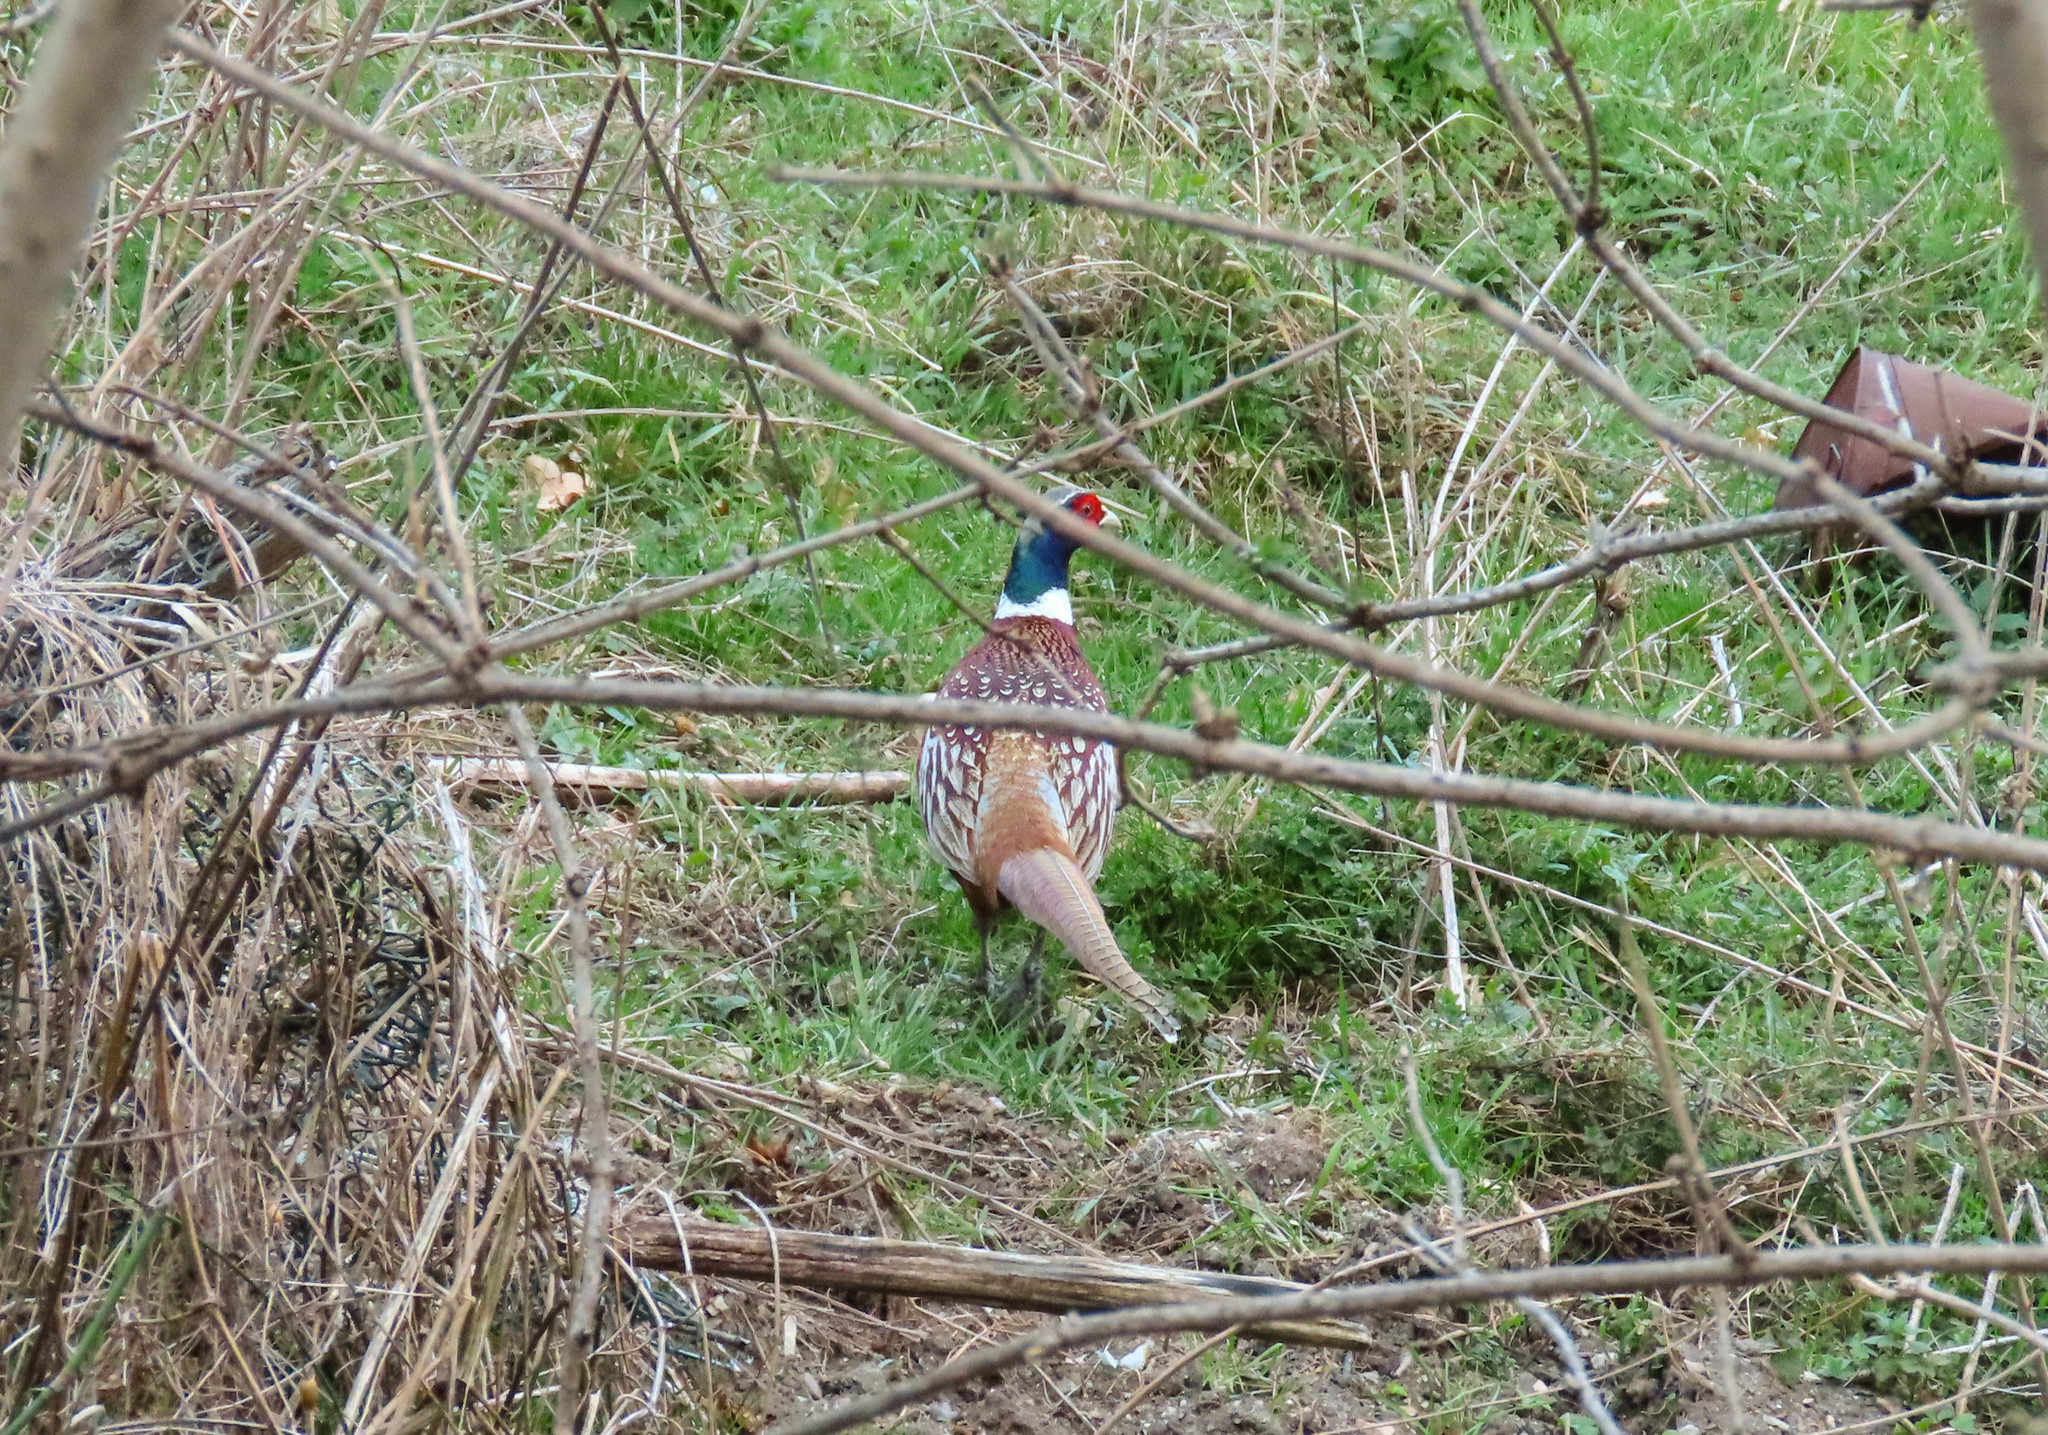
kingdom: Animalia
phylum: Chordata
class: Aves
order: Galliformes
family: Phasianidae
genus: Phasianus
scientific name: Phasianus colchicus
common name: Common pheasant
